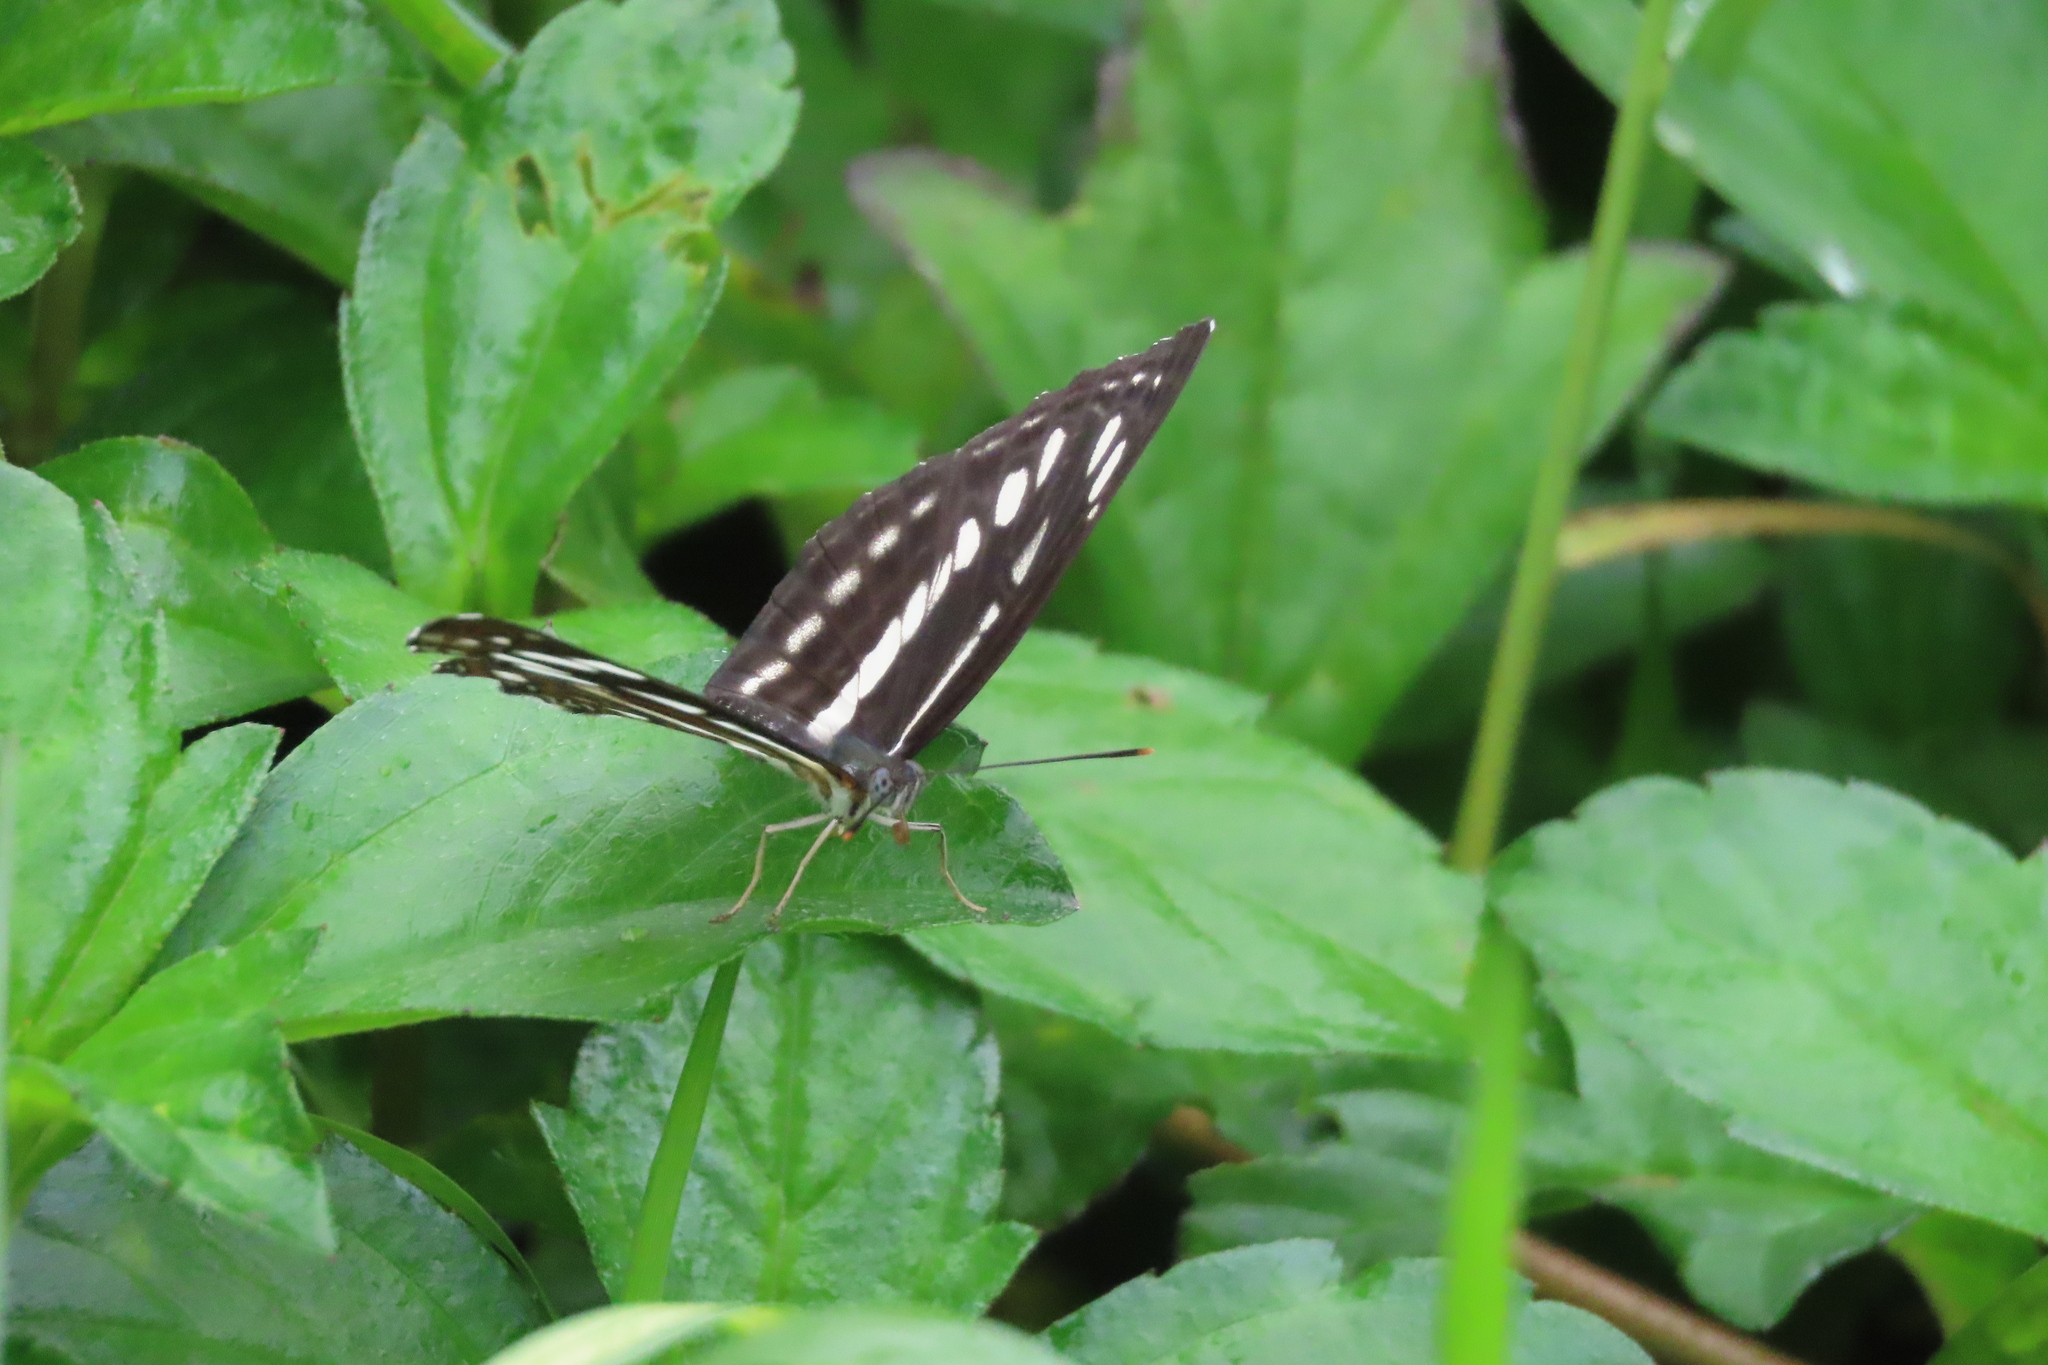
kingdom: Animalia
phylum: Arthropoda
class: Insecta
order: Lepidoptera
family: Nymphalidae
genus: Neptis
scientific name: Neptis hylas
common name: Common sailer
